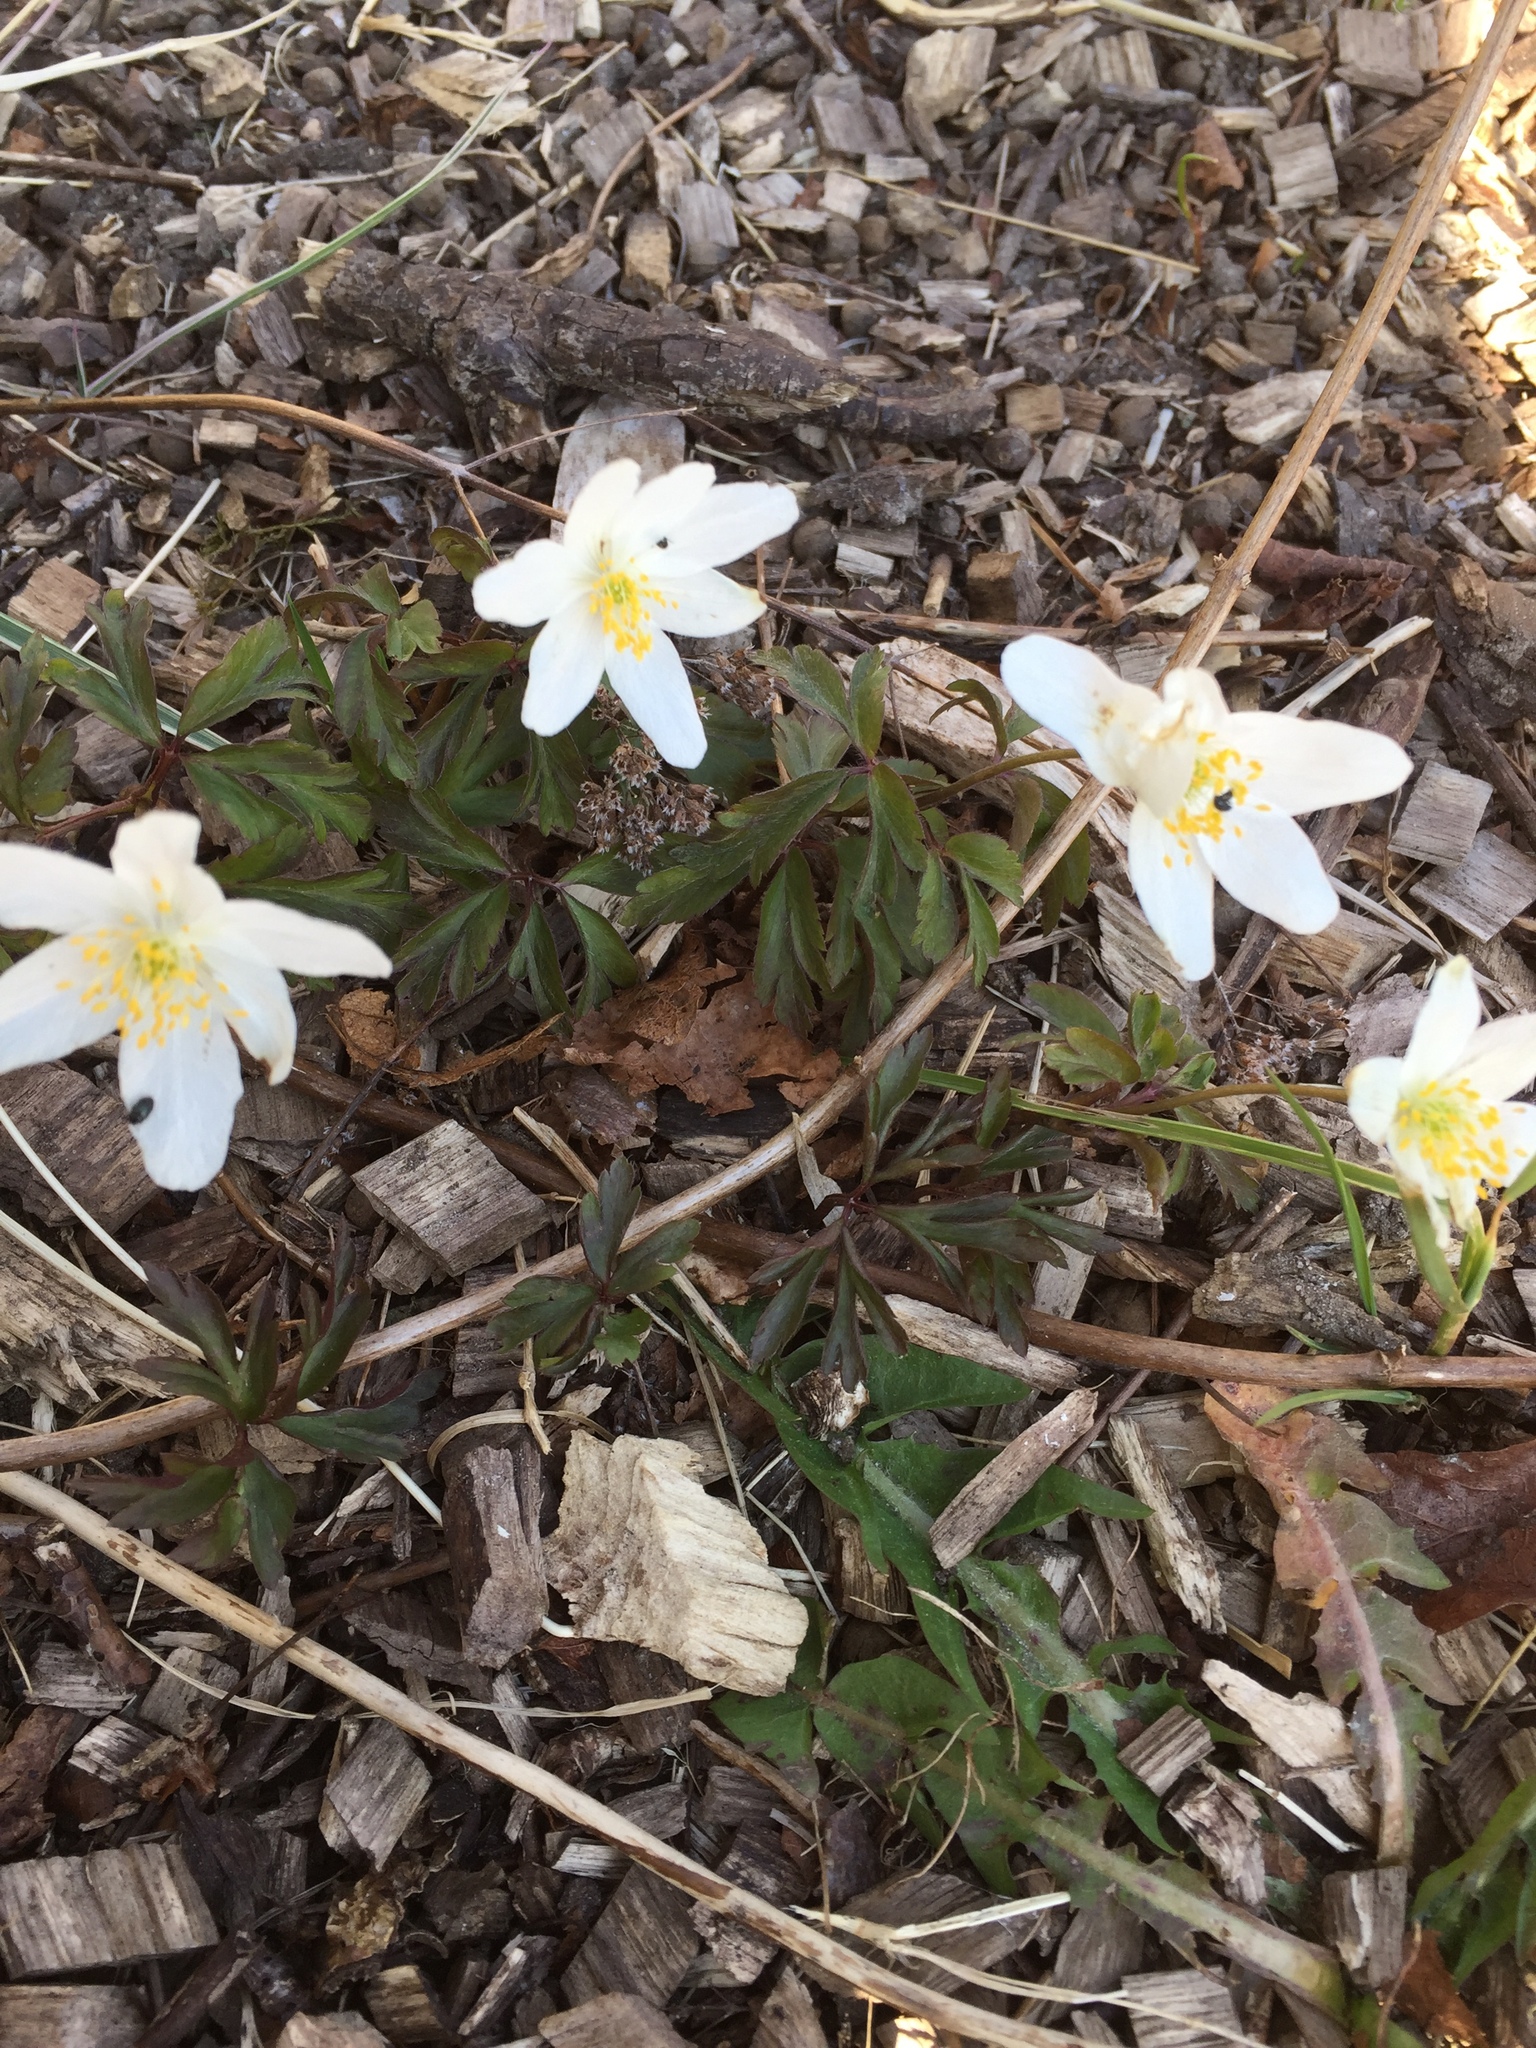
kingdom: Plantae
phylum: Tracheophyta
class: Magnoliopsida
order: Ranunculales
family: Ranunculaceae
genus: Anemone
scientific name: Anemone nemorosa
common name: Wood anemone
